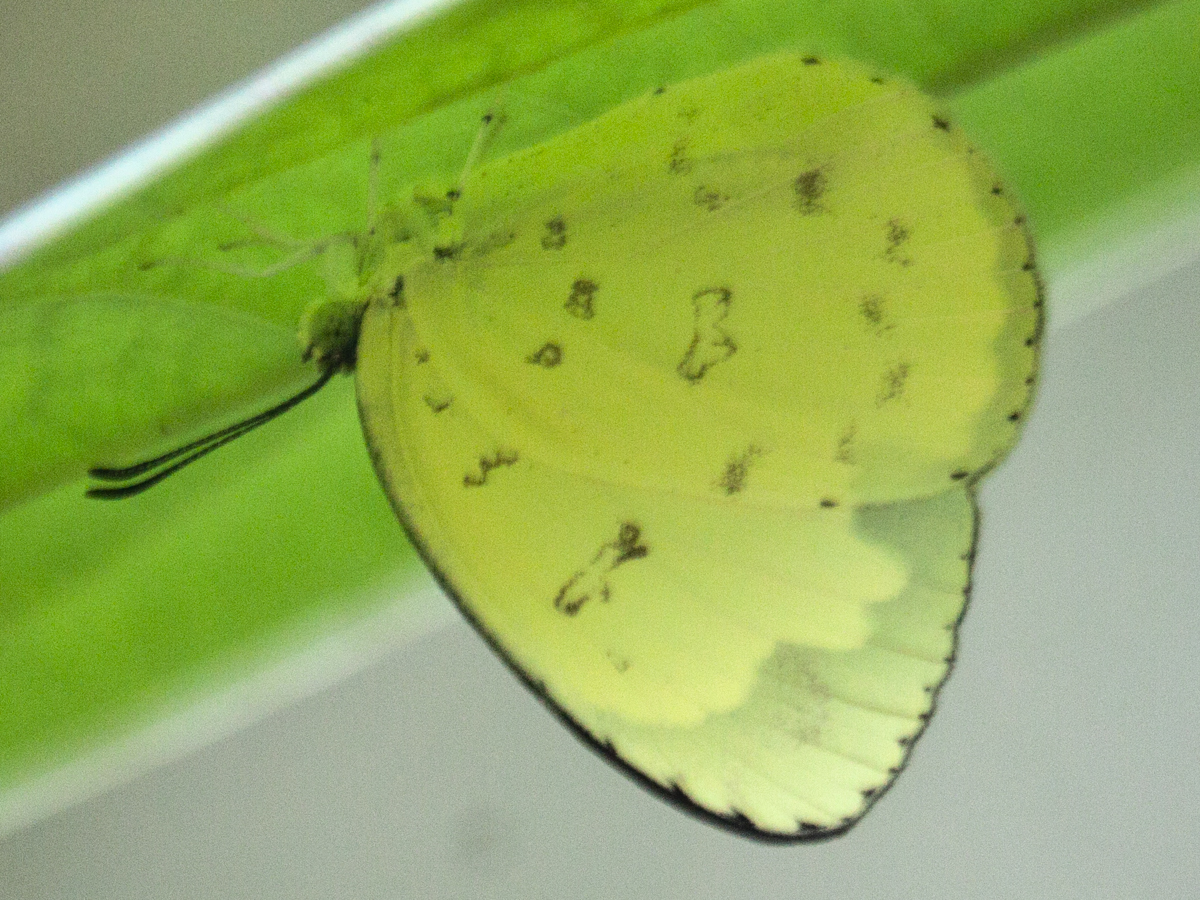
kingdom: Animalia
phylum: Arthropoda
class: Insecta
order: Lepidoptera
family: Pieridae
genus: Eurema
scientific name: Eurema blanda
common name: Three-spot grass yellow
